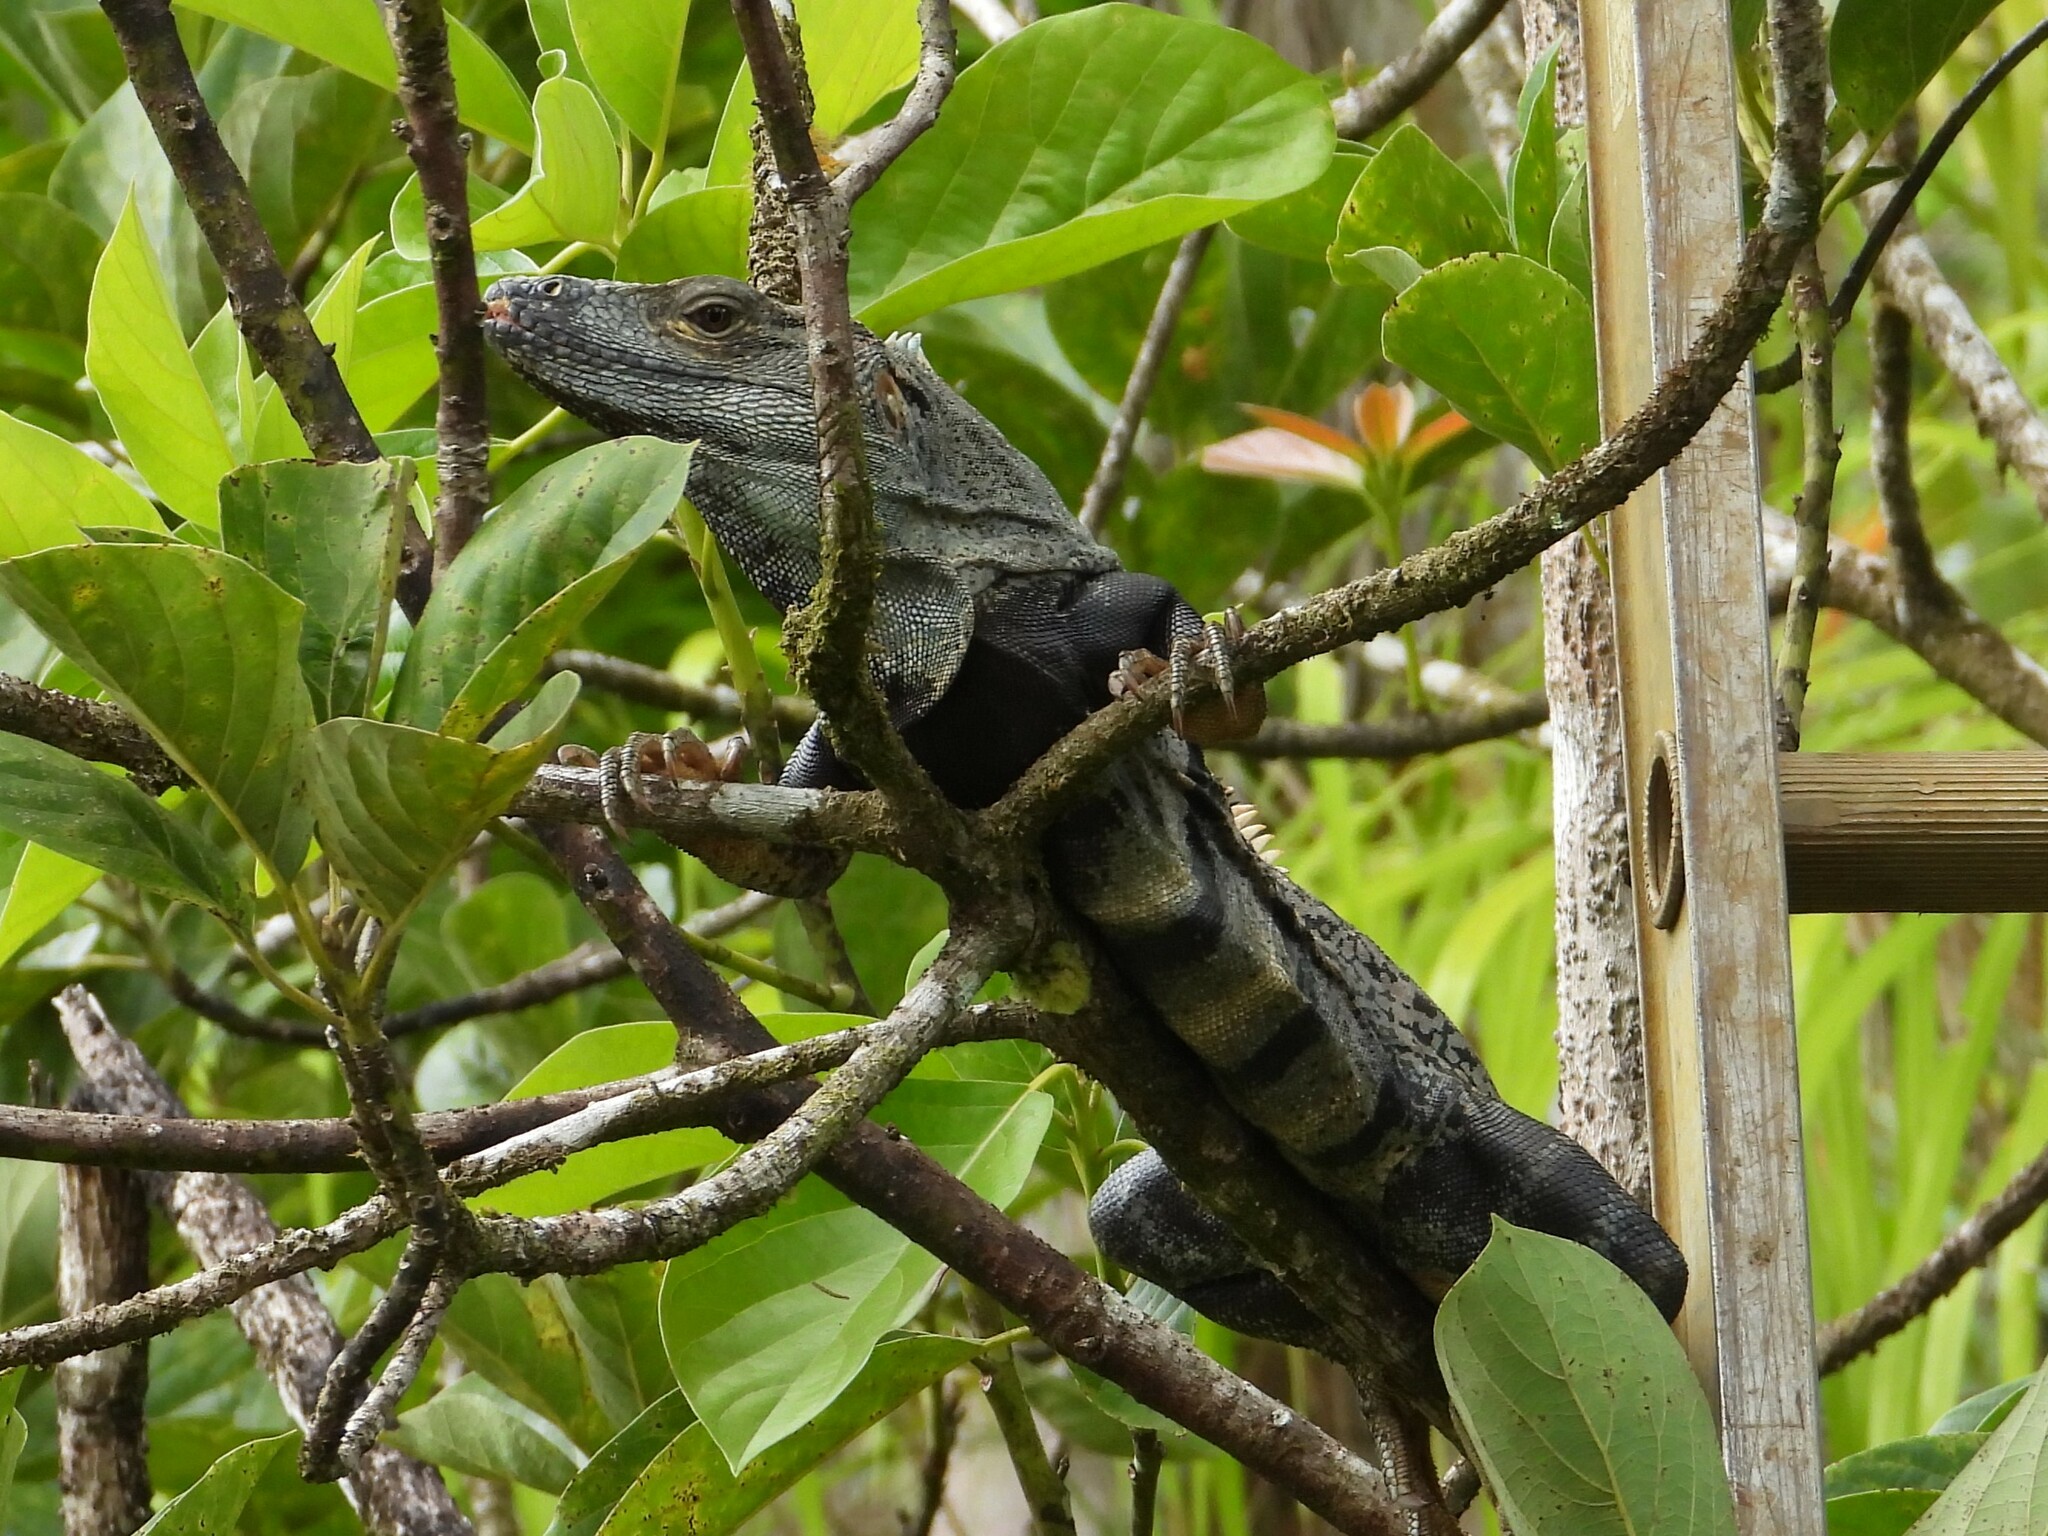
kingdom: Animalia
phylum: Chordata
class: Squamata
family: Iguanidae
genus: Ctenosaura
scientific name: Ctenosaura similis
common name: Black spiny-tailed iguana
